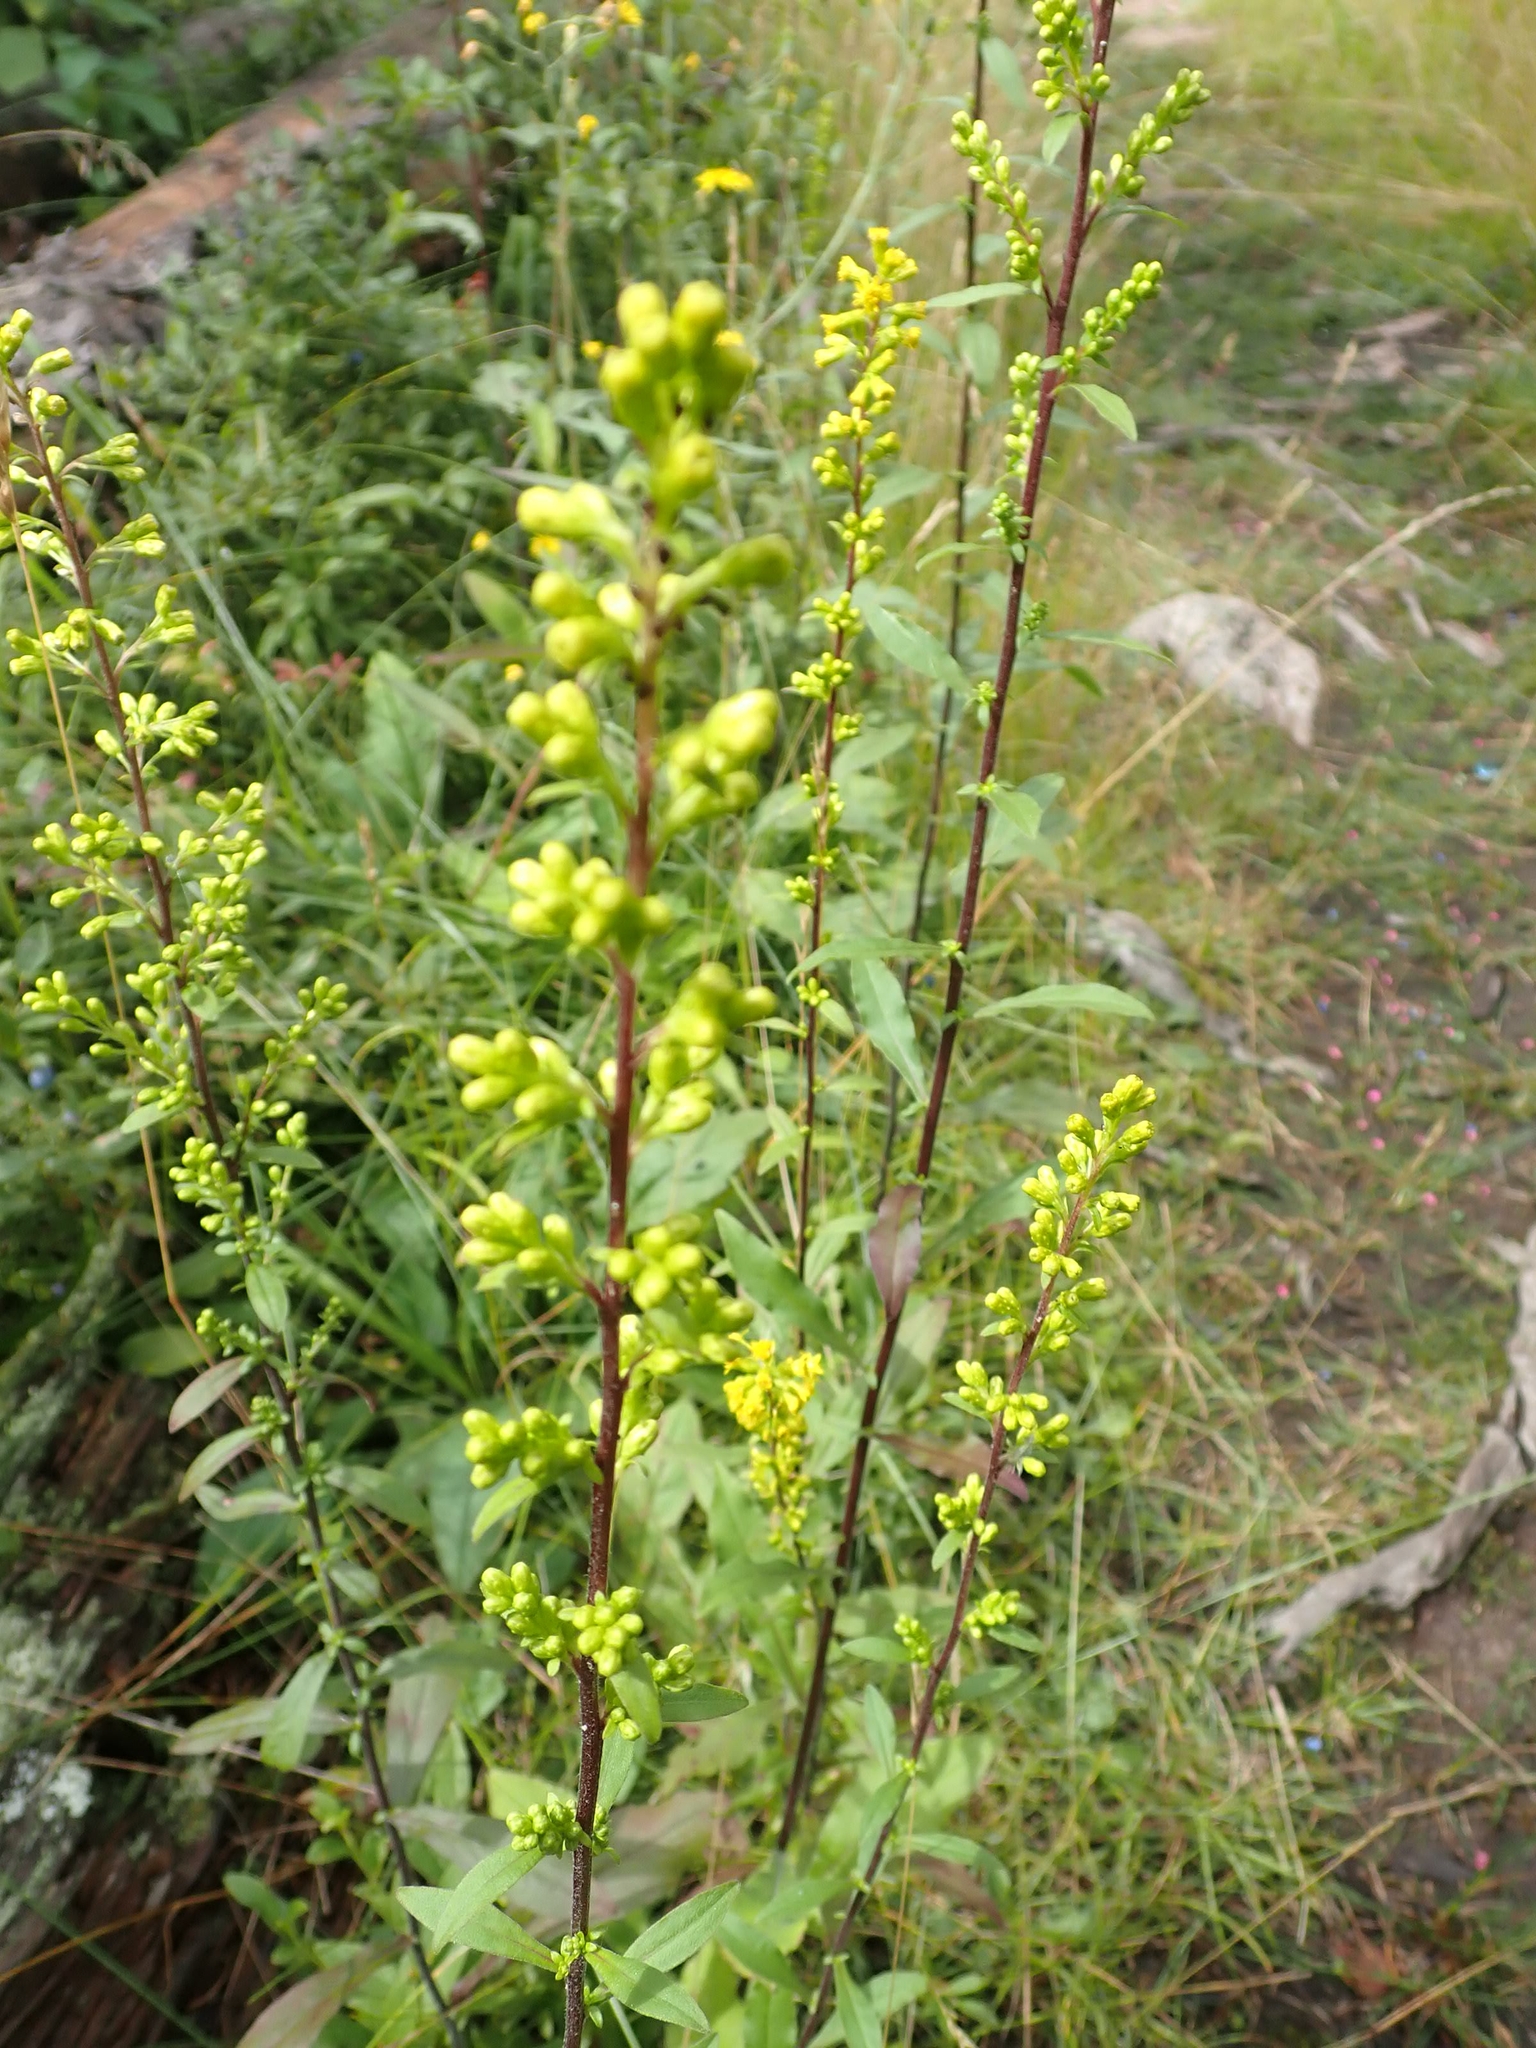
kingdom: Plantae
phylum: Tracheophyta
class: Magnoliopsida
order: Asterales
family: Asteraceae
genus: Solidago
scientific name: Solidago hispida
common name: Hairy goldenrod
